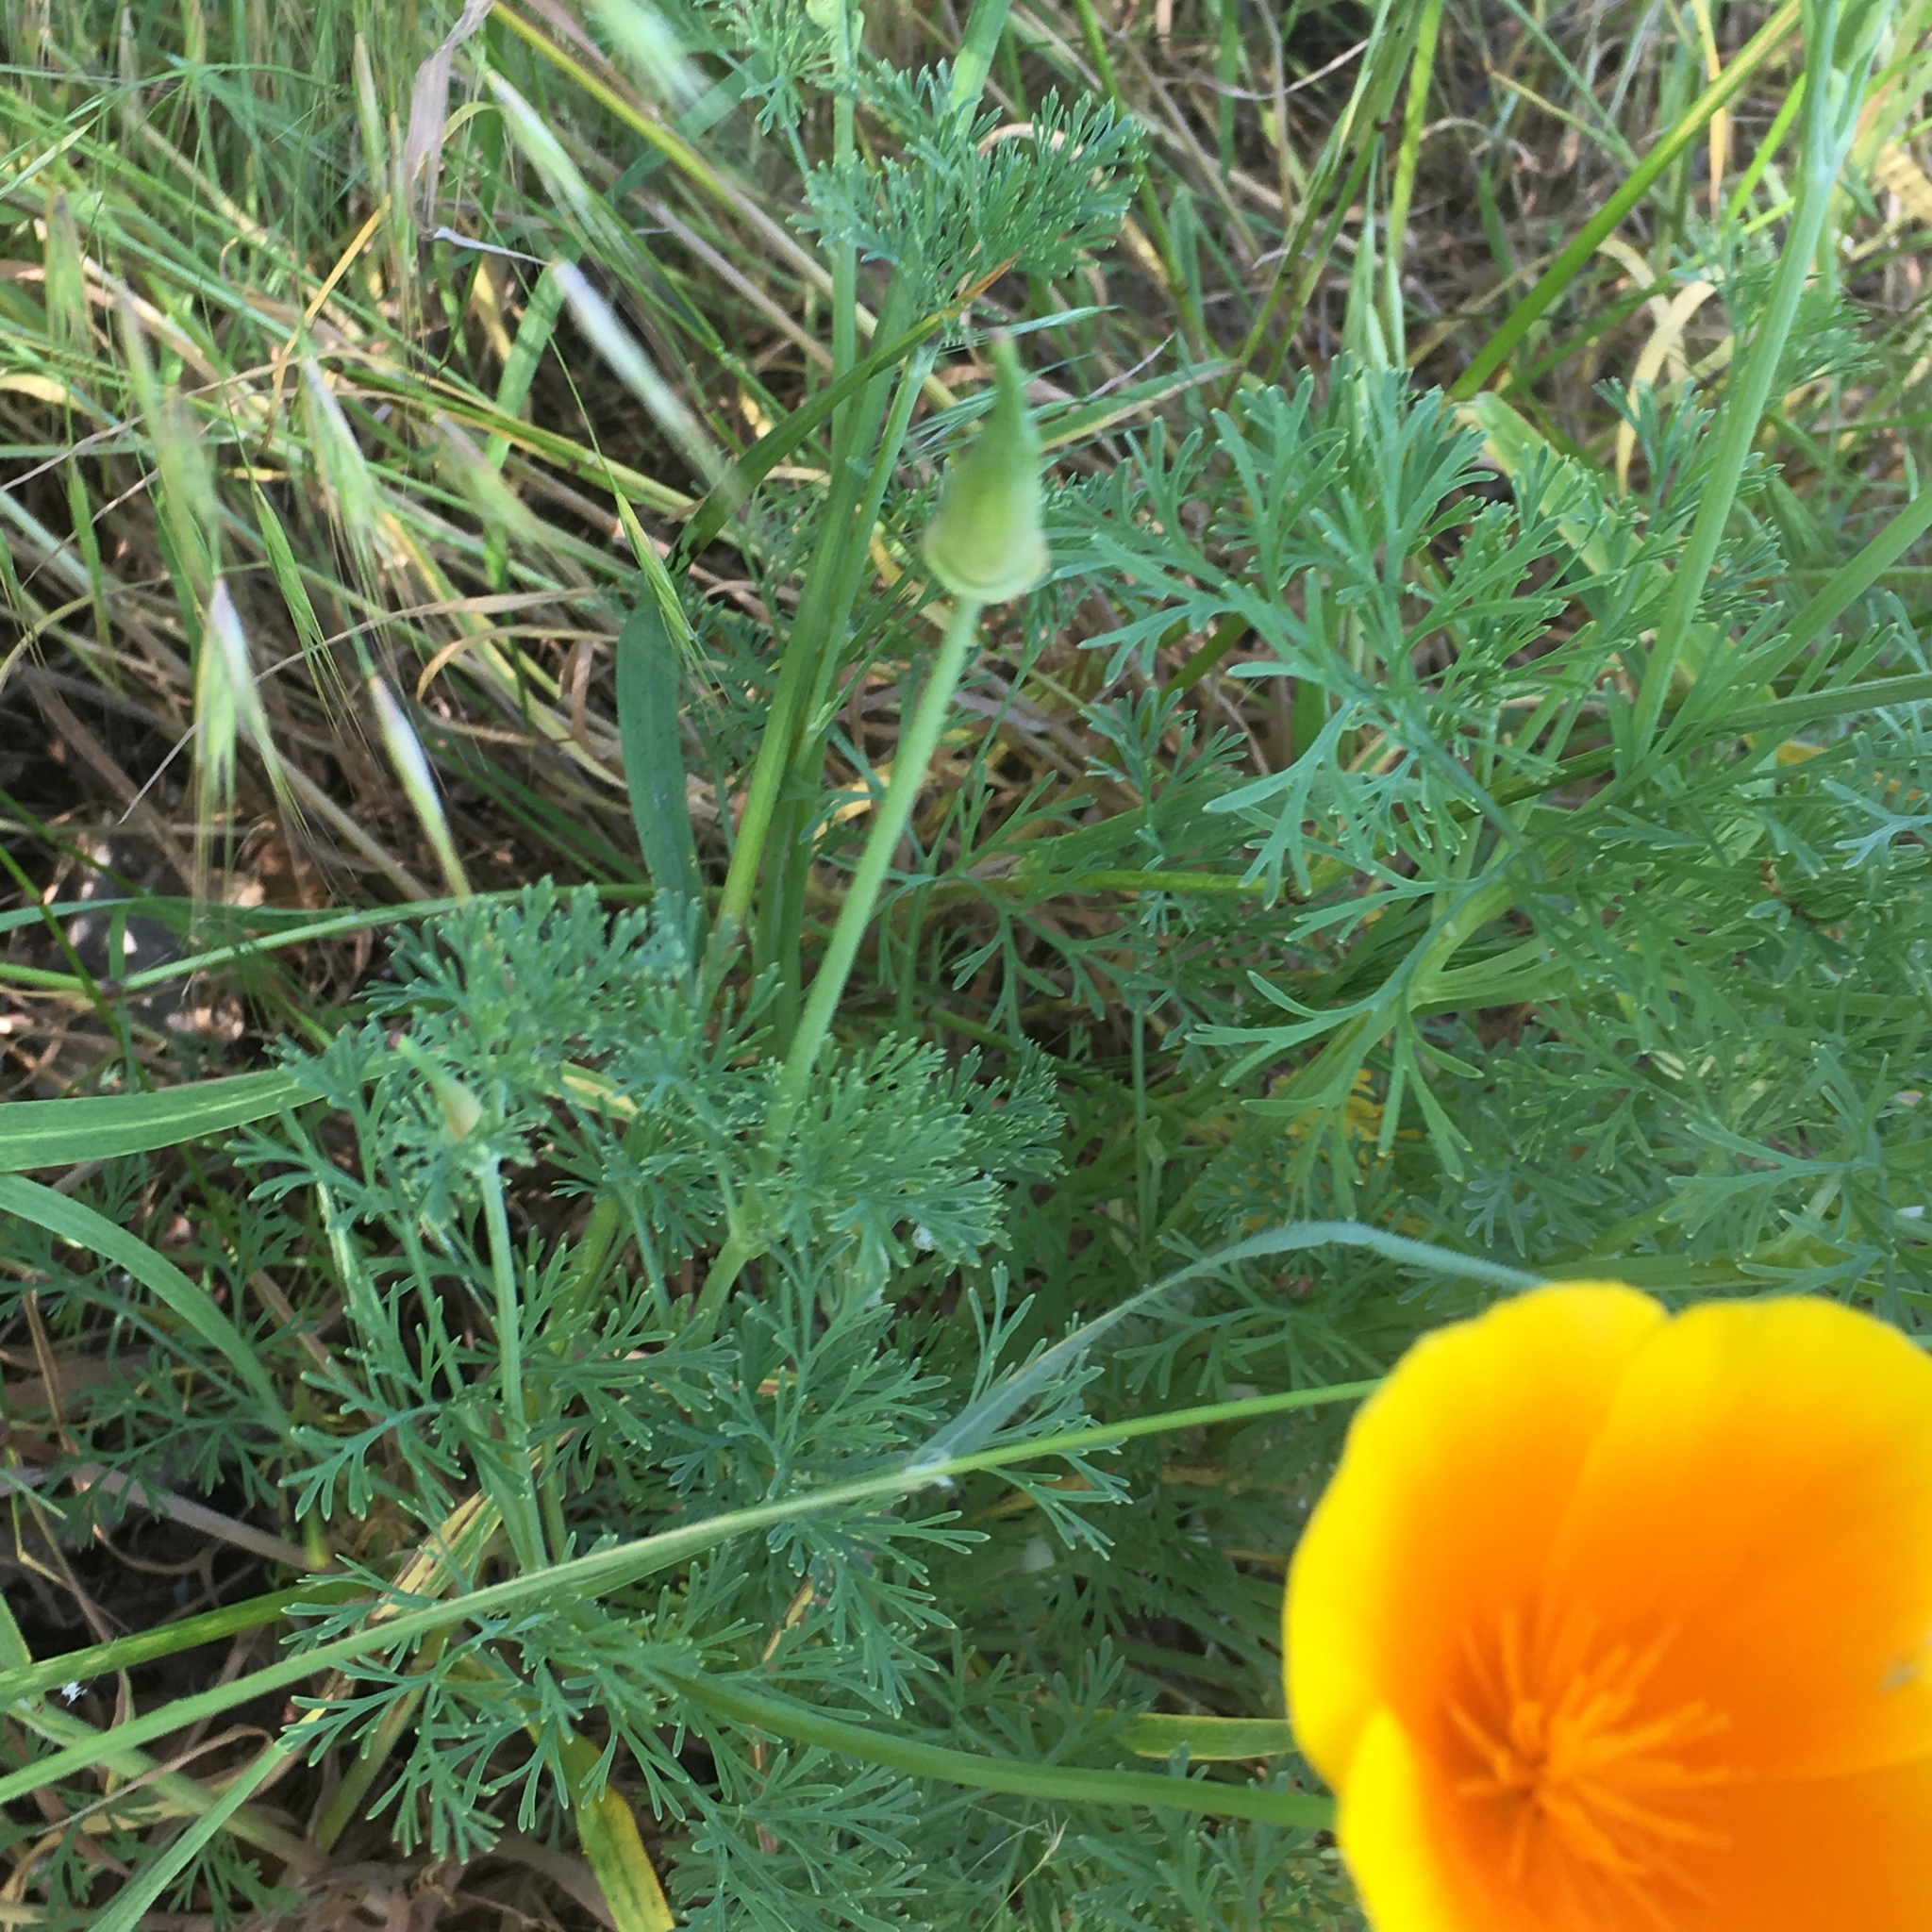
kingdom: Plantae
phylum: Tracheophyta
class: Magnoliopsida
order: Ranunculales
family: Papaveraceae
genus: Eschscholzia
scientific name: Eschscholzia californica
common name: California poppy
